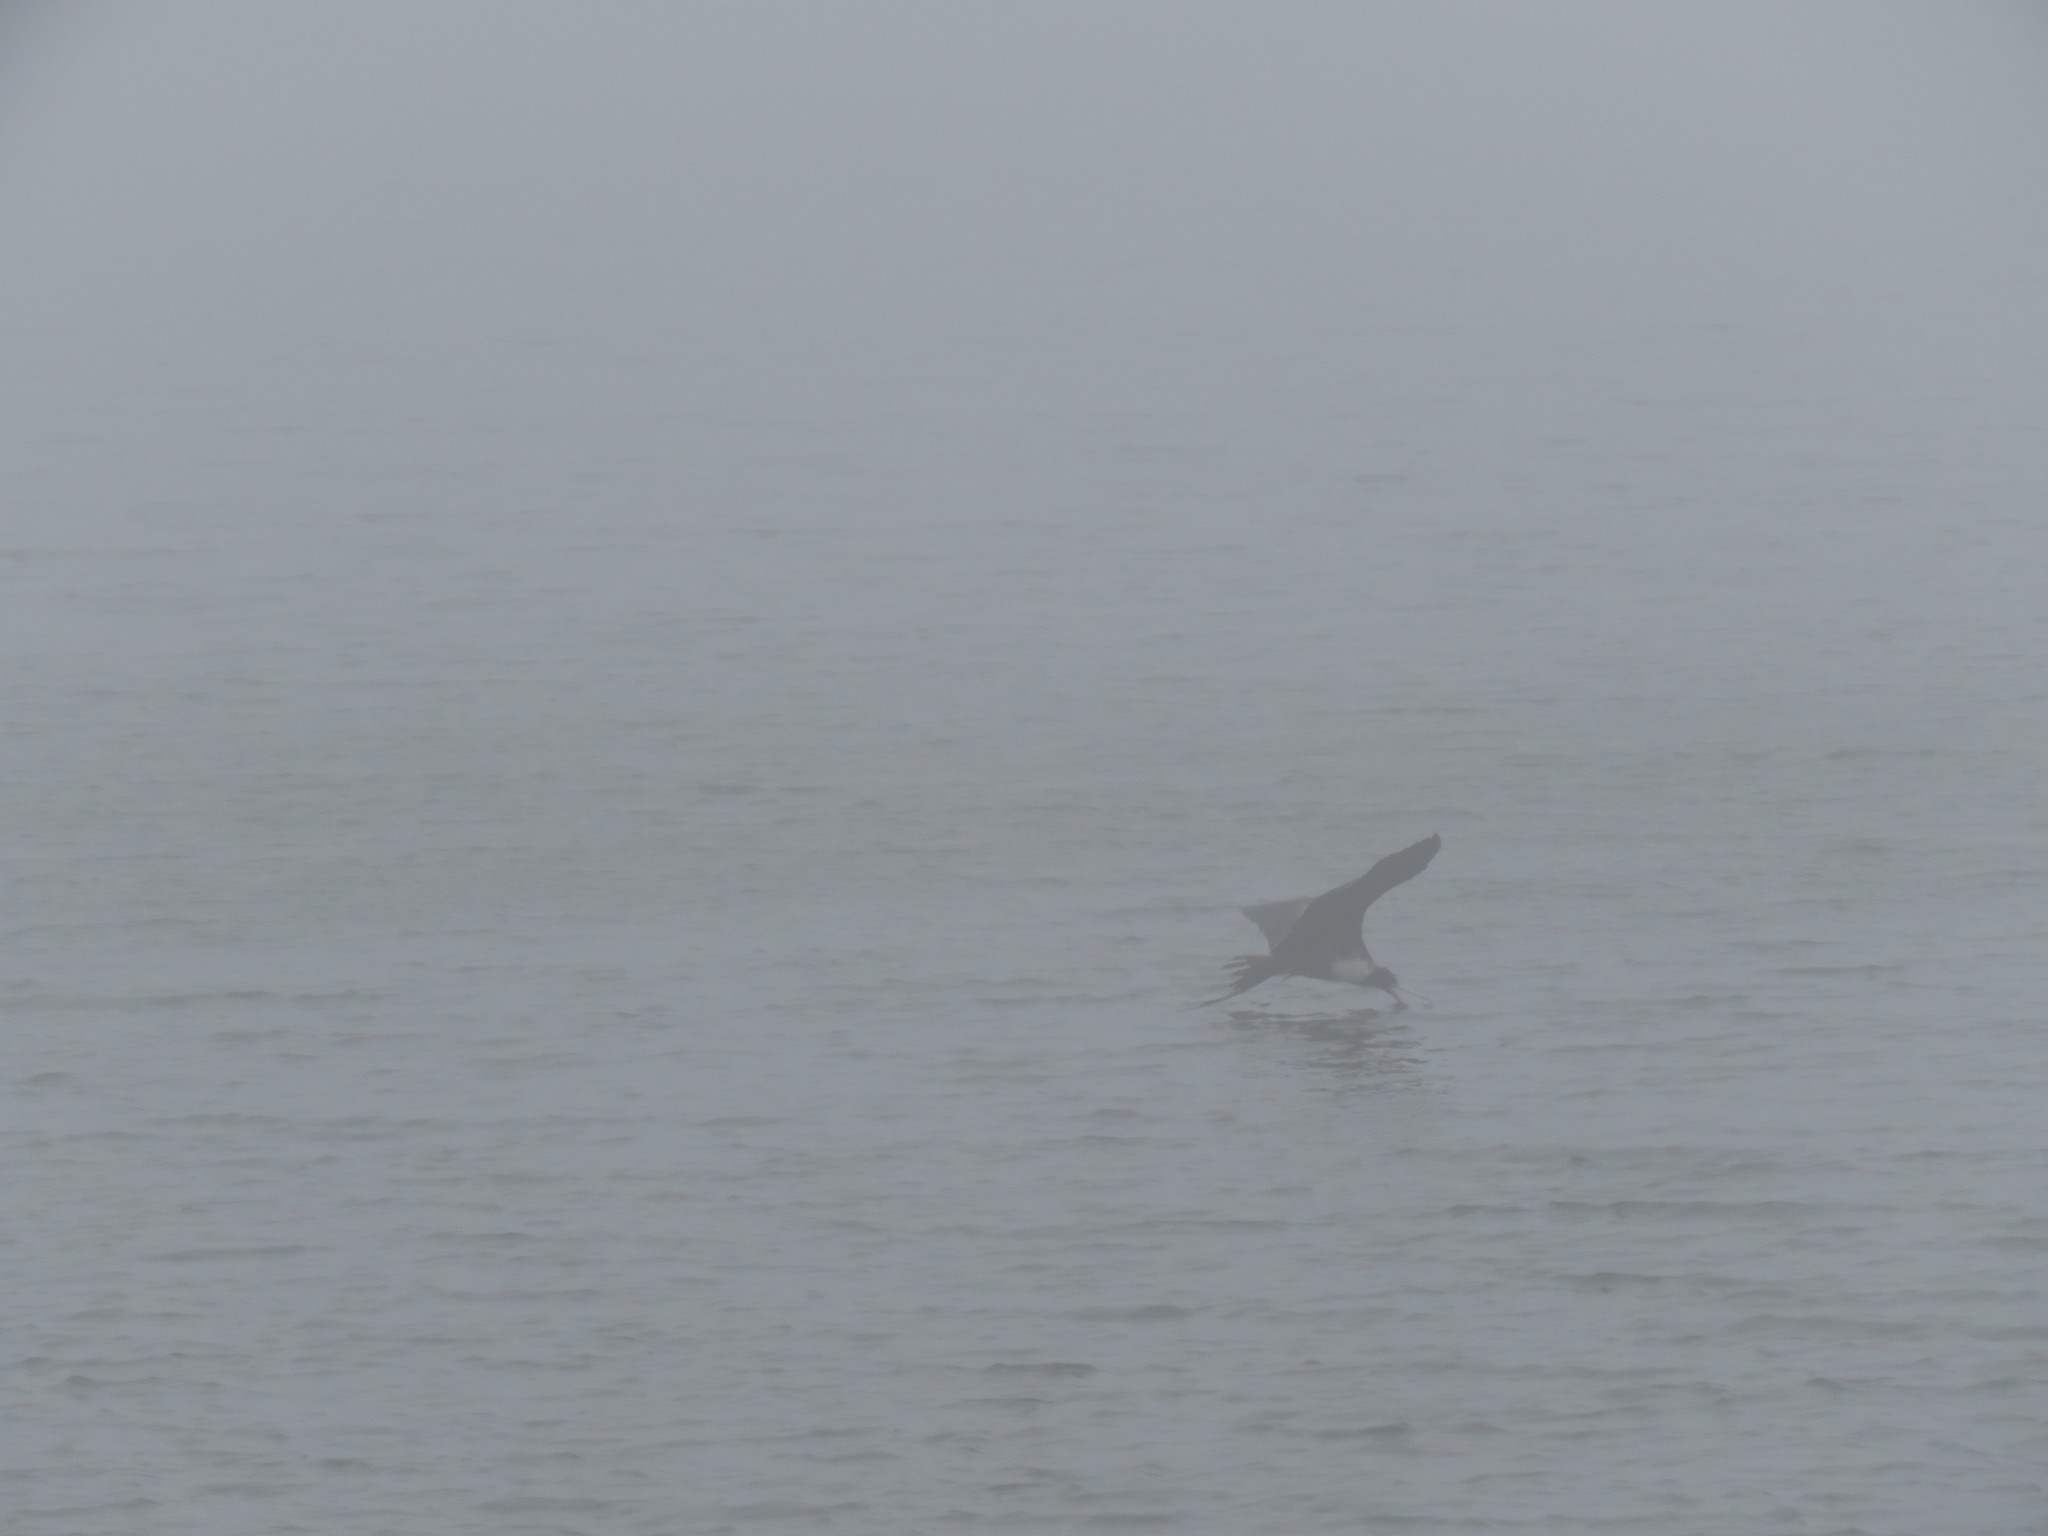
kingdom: Animalia
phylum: Chordata
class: Aves
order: Suliformes
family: Fregatidae
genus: Fregata
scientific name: Fregata magnificens
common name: Magnificent frigatebird
